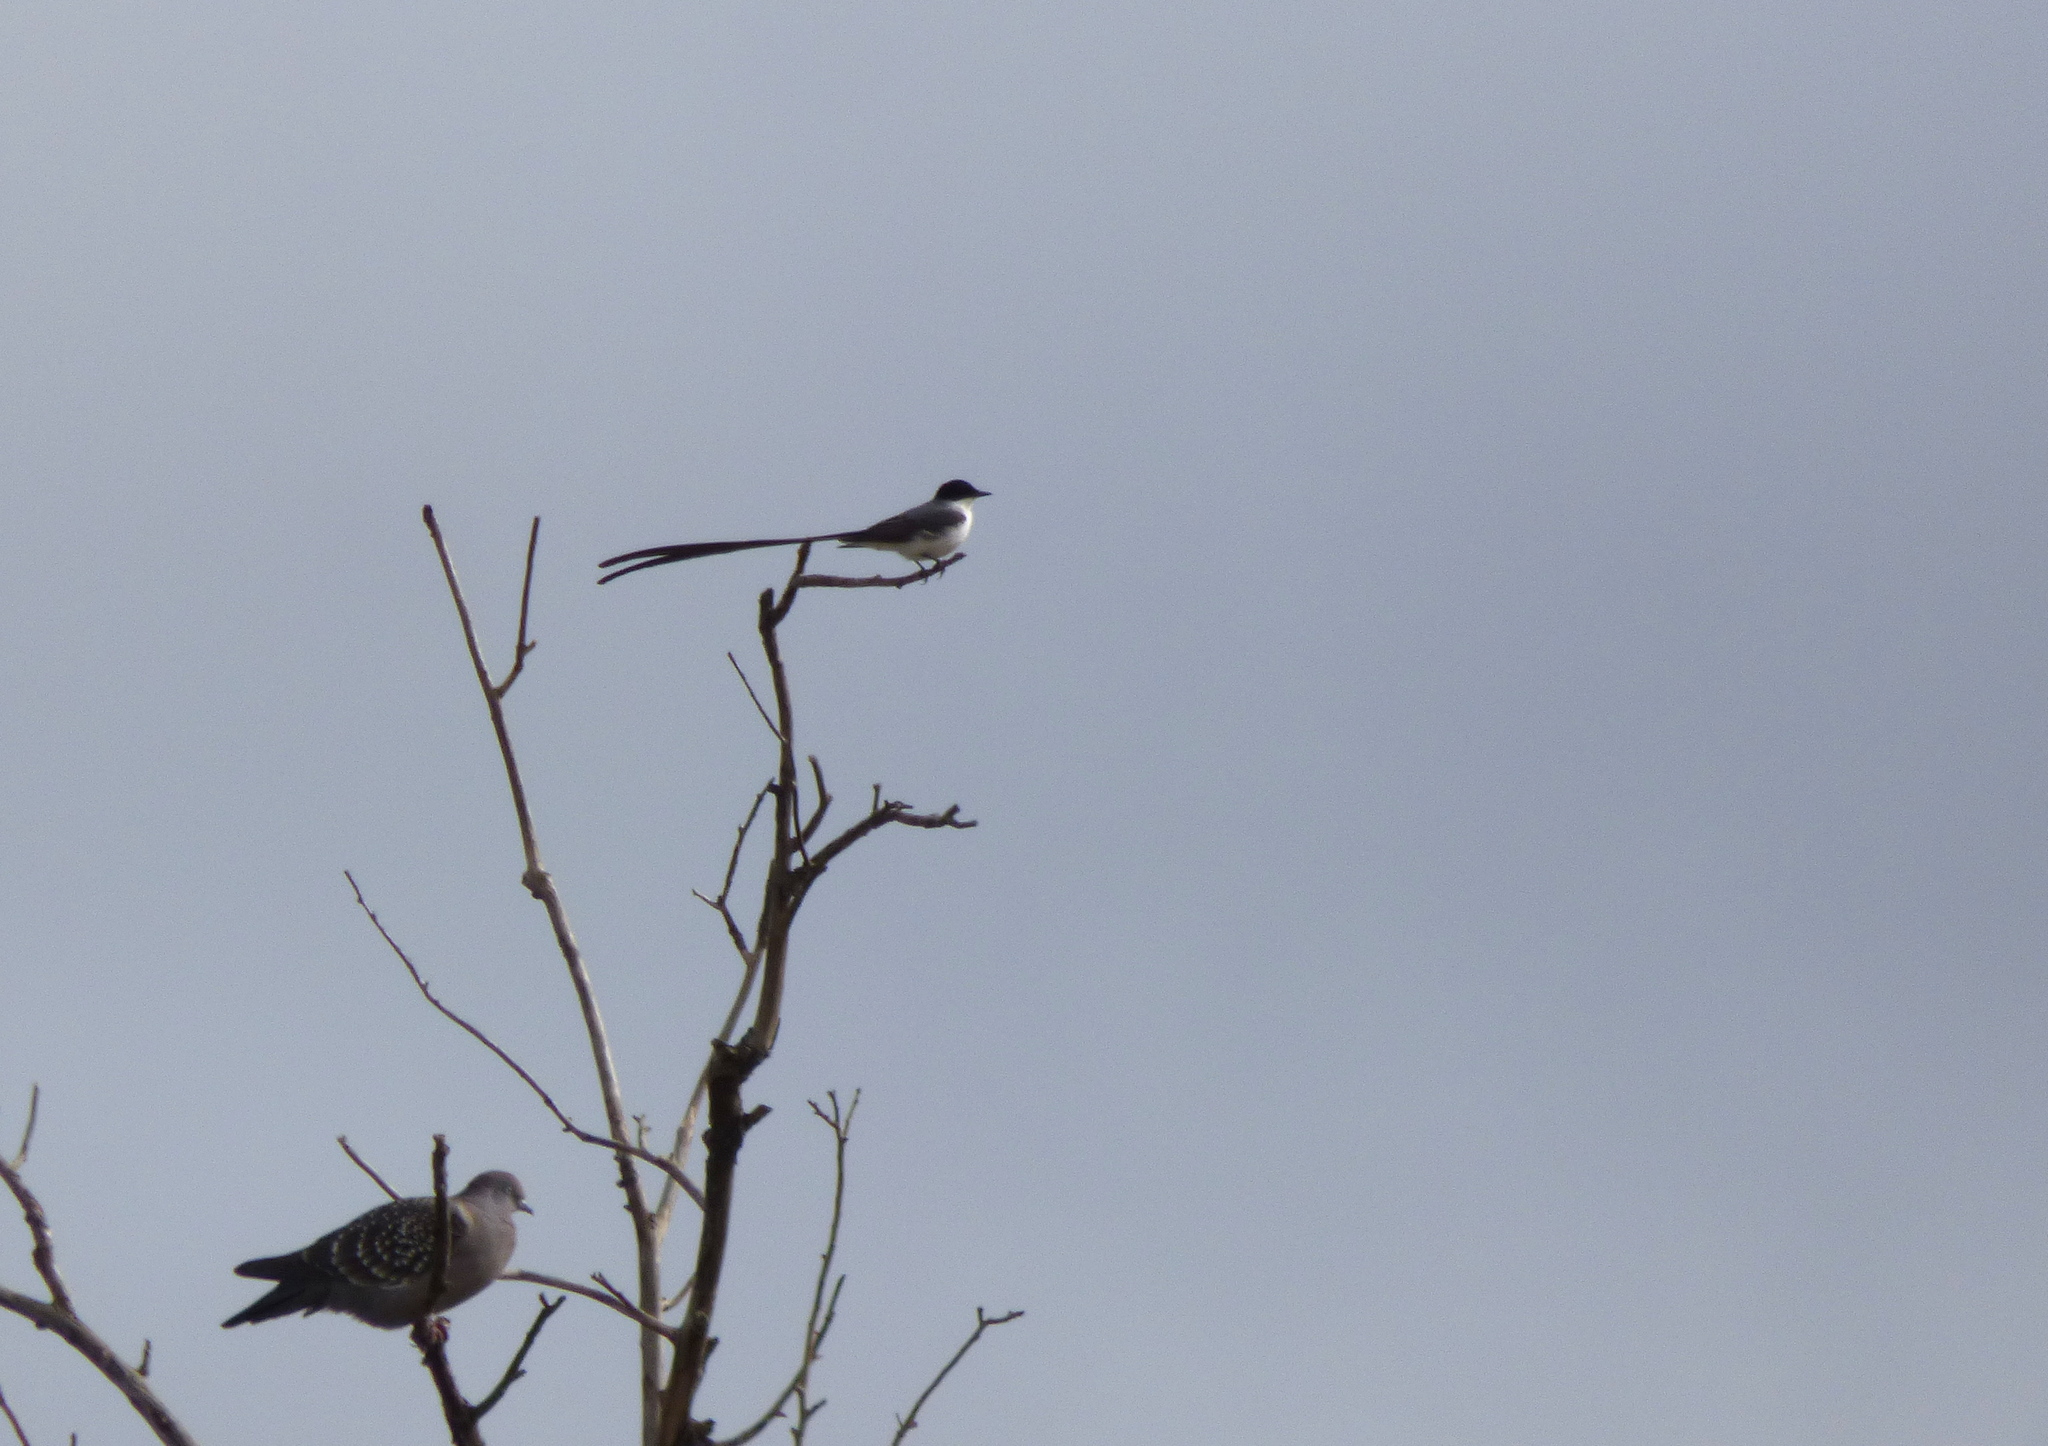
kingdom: Animalia
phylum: Chordata
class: Aves
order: Passeriformes
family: Tyrannidae
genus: Tyrannus
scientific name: Tyrannus savana
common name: Fork-tailed flycatcher
